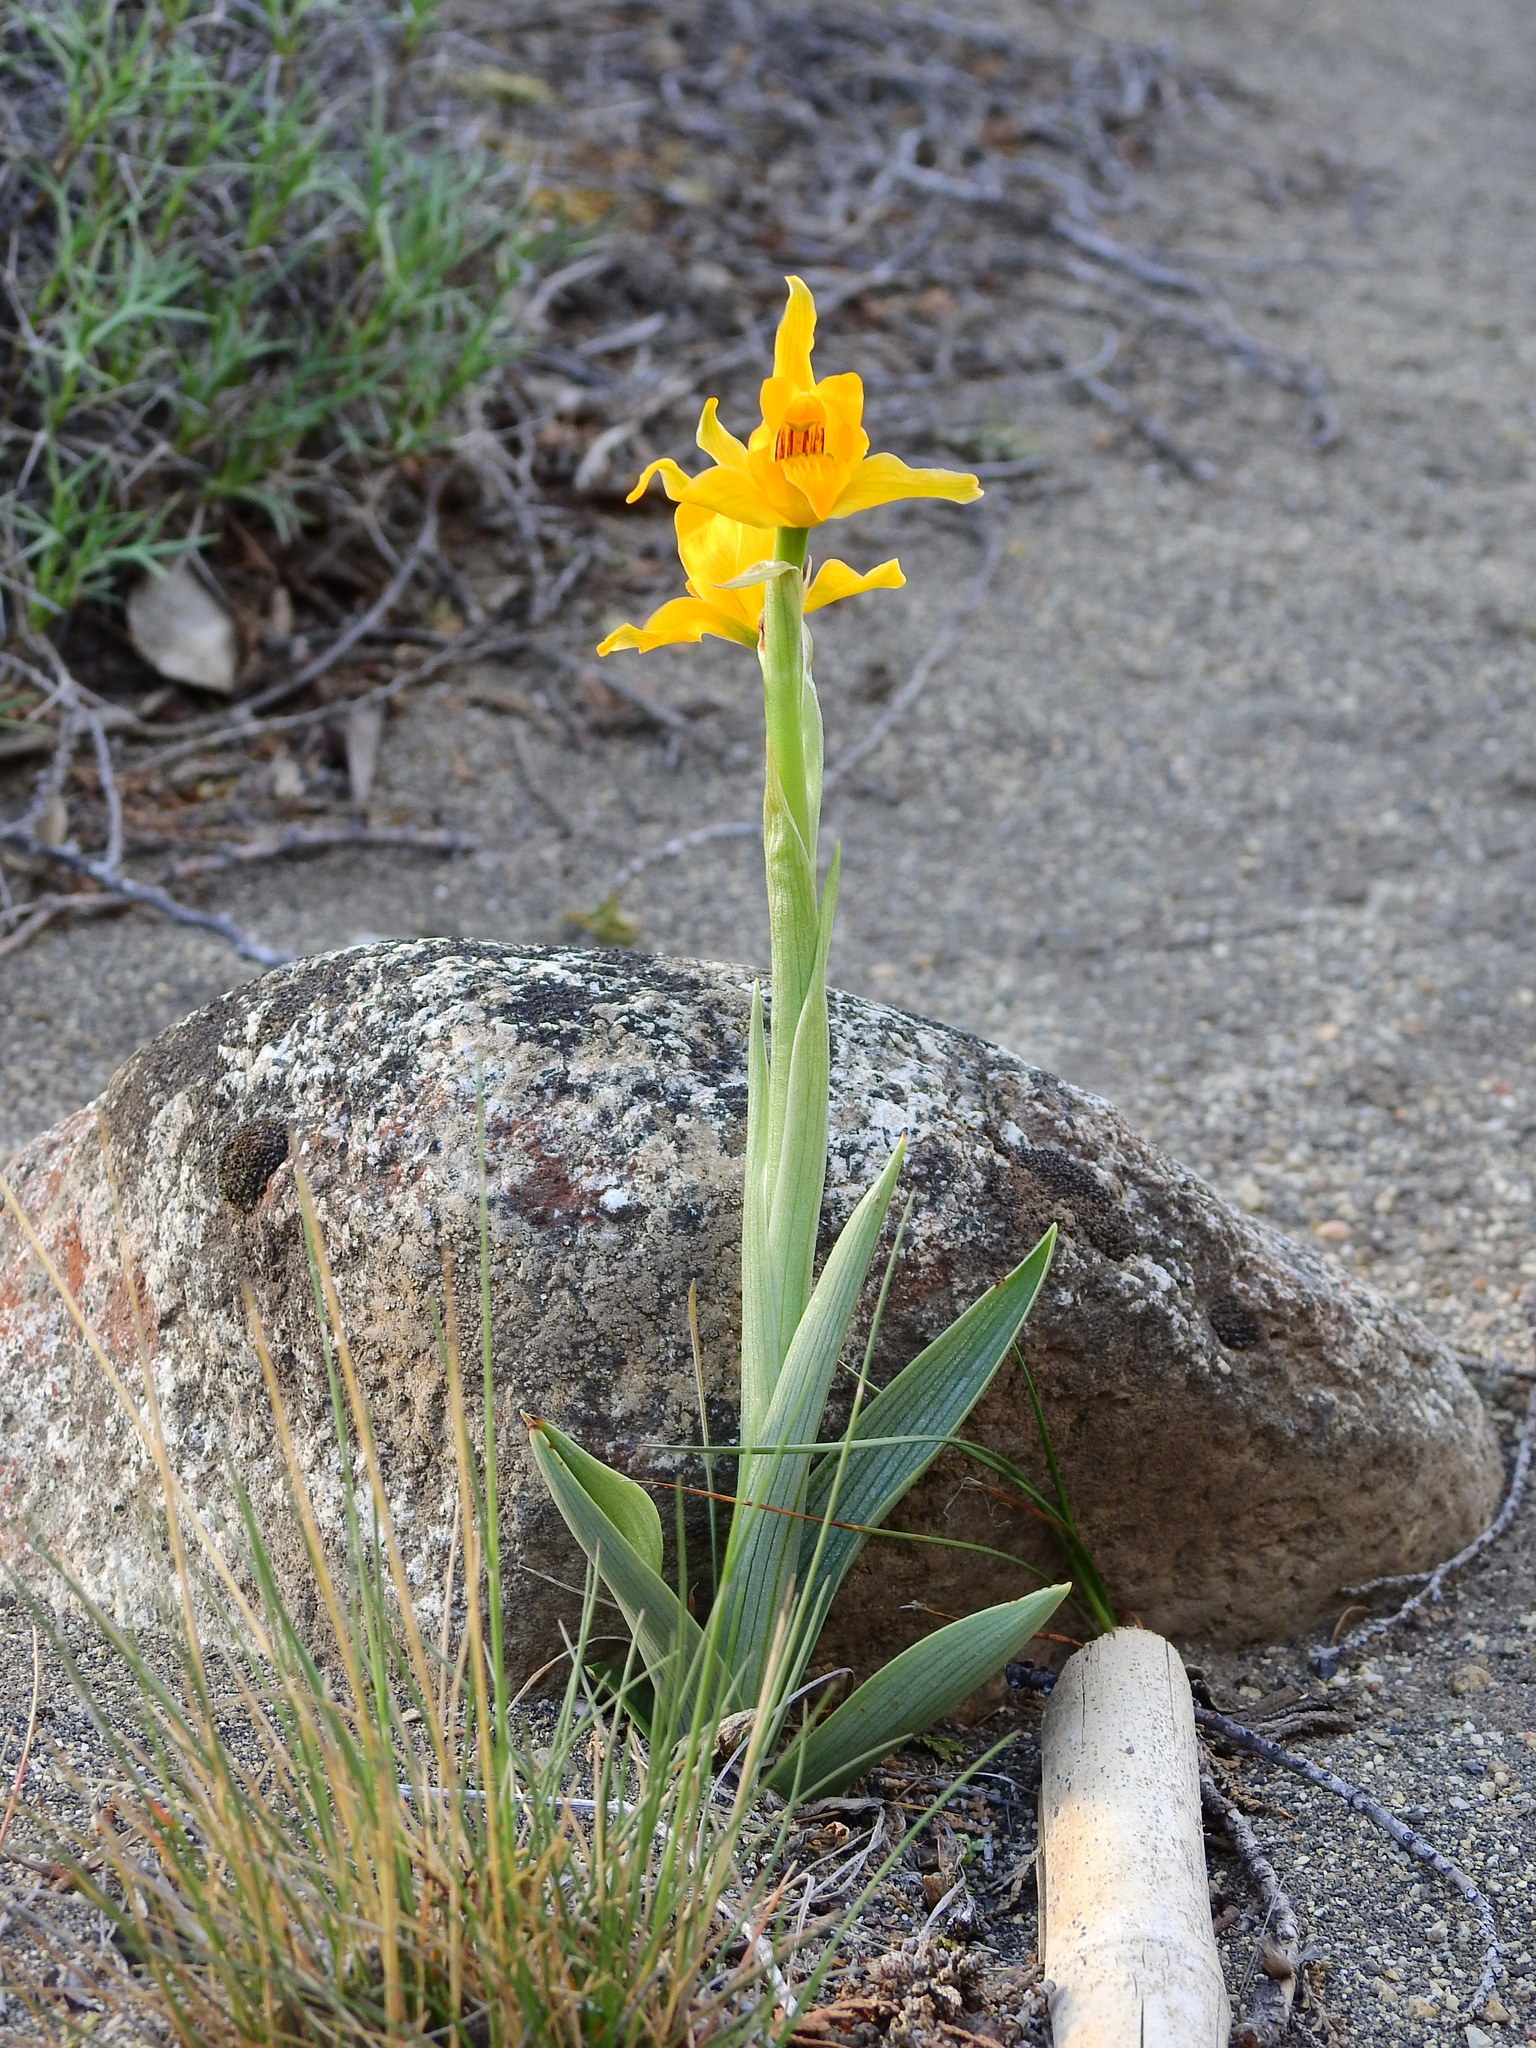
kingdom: Plantae
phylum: Tracheophyta
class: Liliopsida
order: Asparagales
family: Orchidaceae
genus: Chloraea
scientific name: Chloraea alpina
